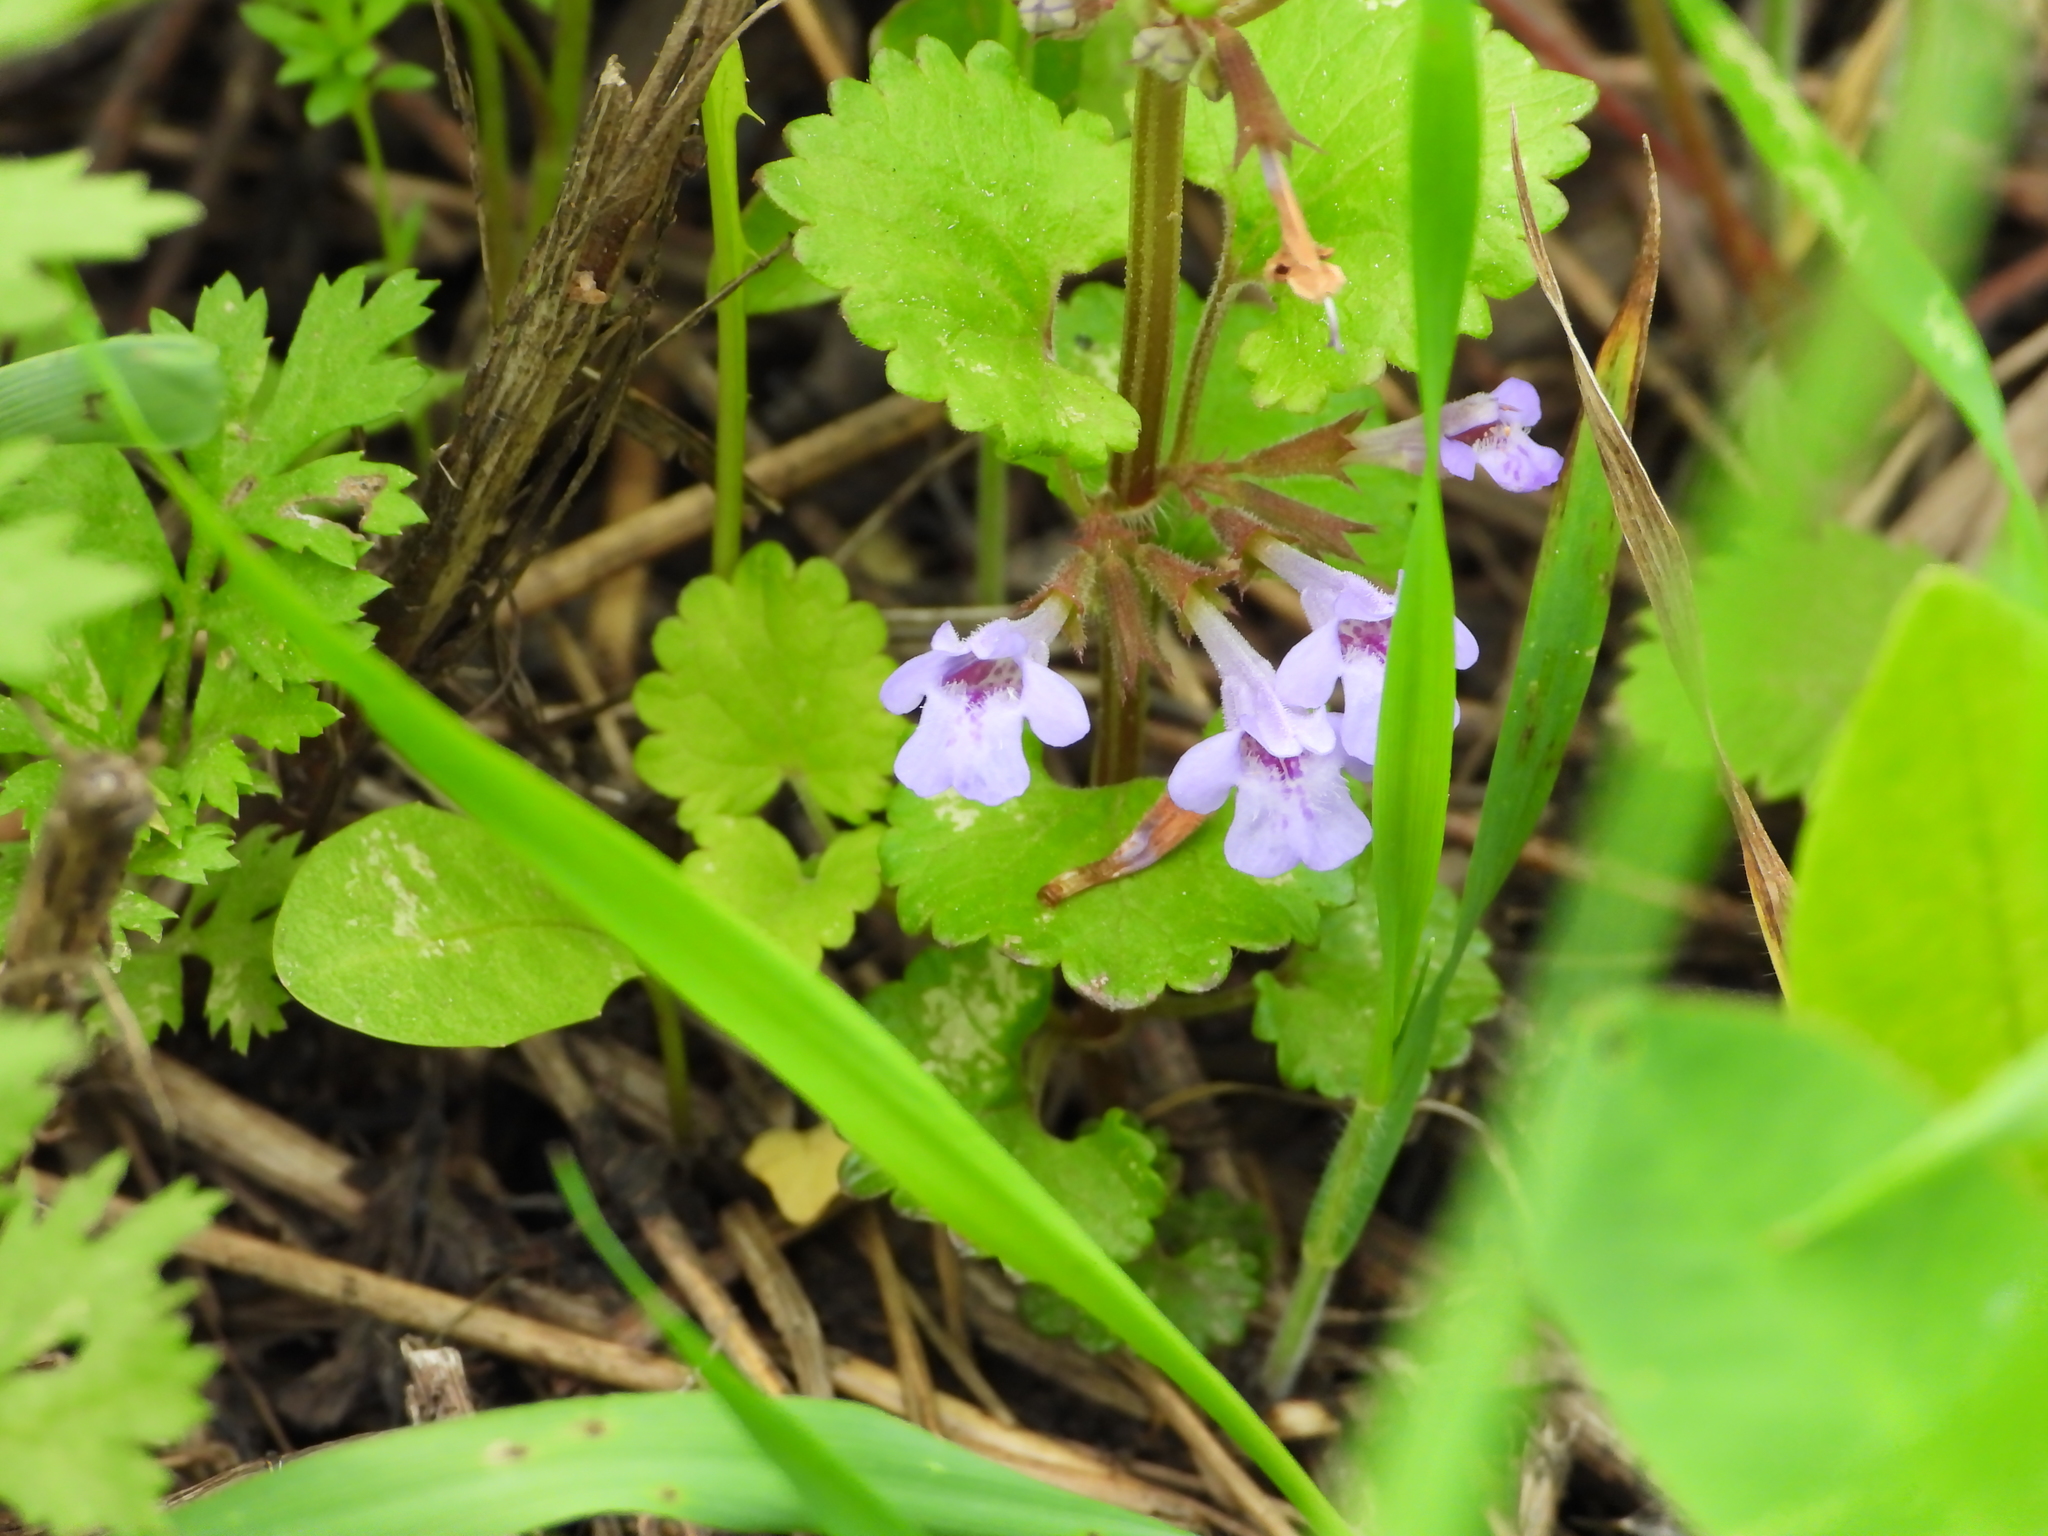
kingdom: Plantae
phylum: Tracheophyta
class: Magnoliopsida
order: Lamiales
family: Lamiaceae
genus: Glechoma
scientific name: Glechoma hederacea
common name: Ground ivy
